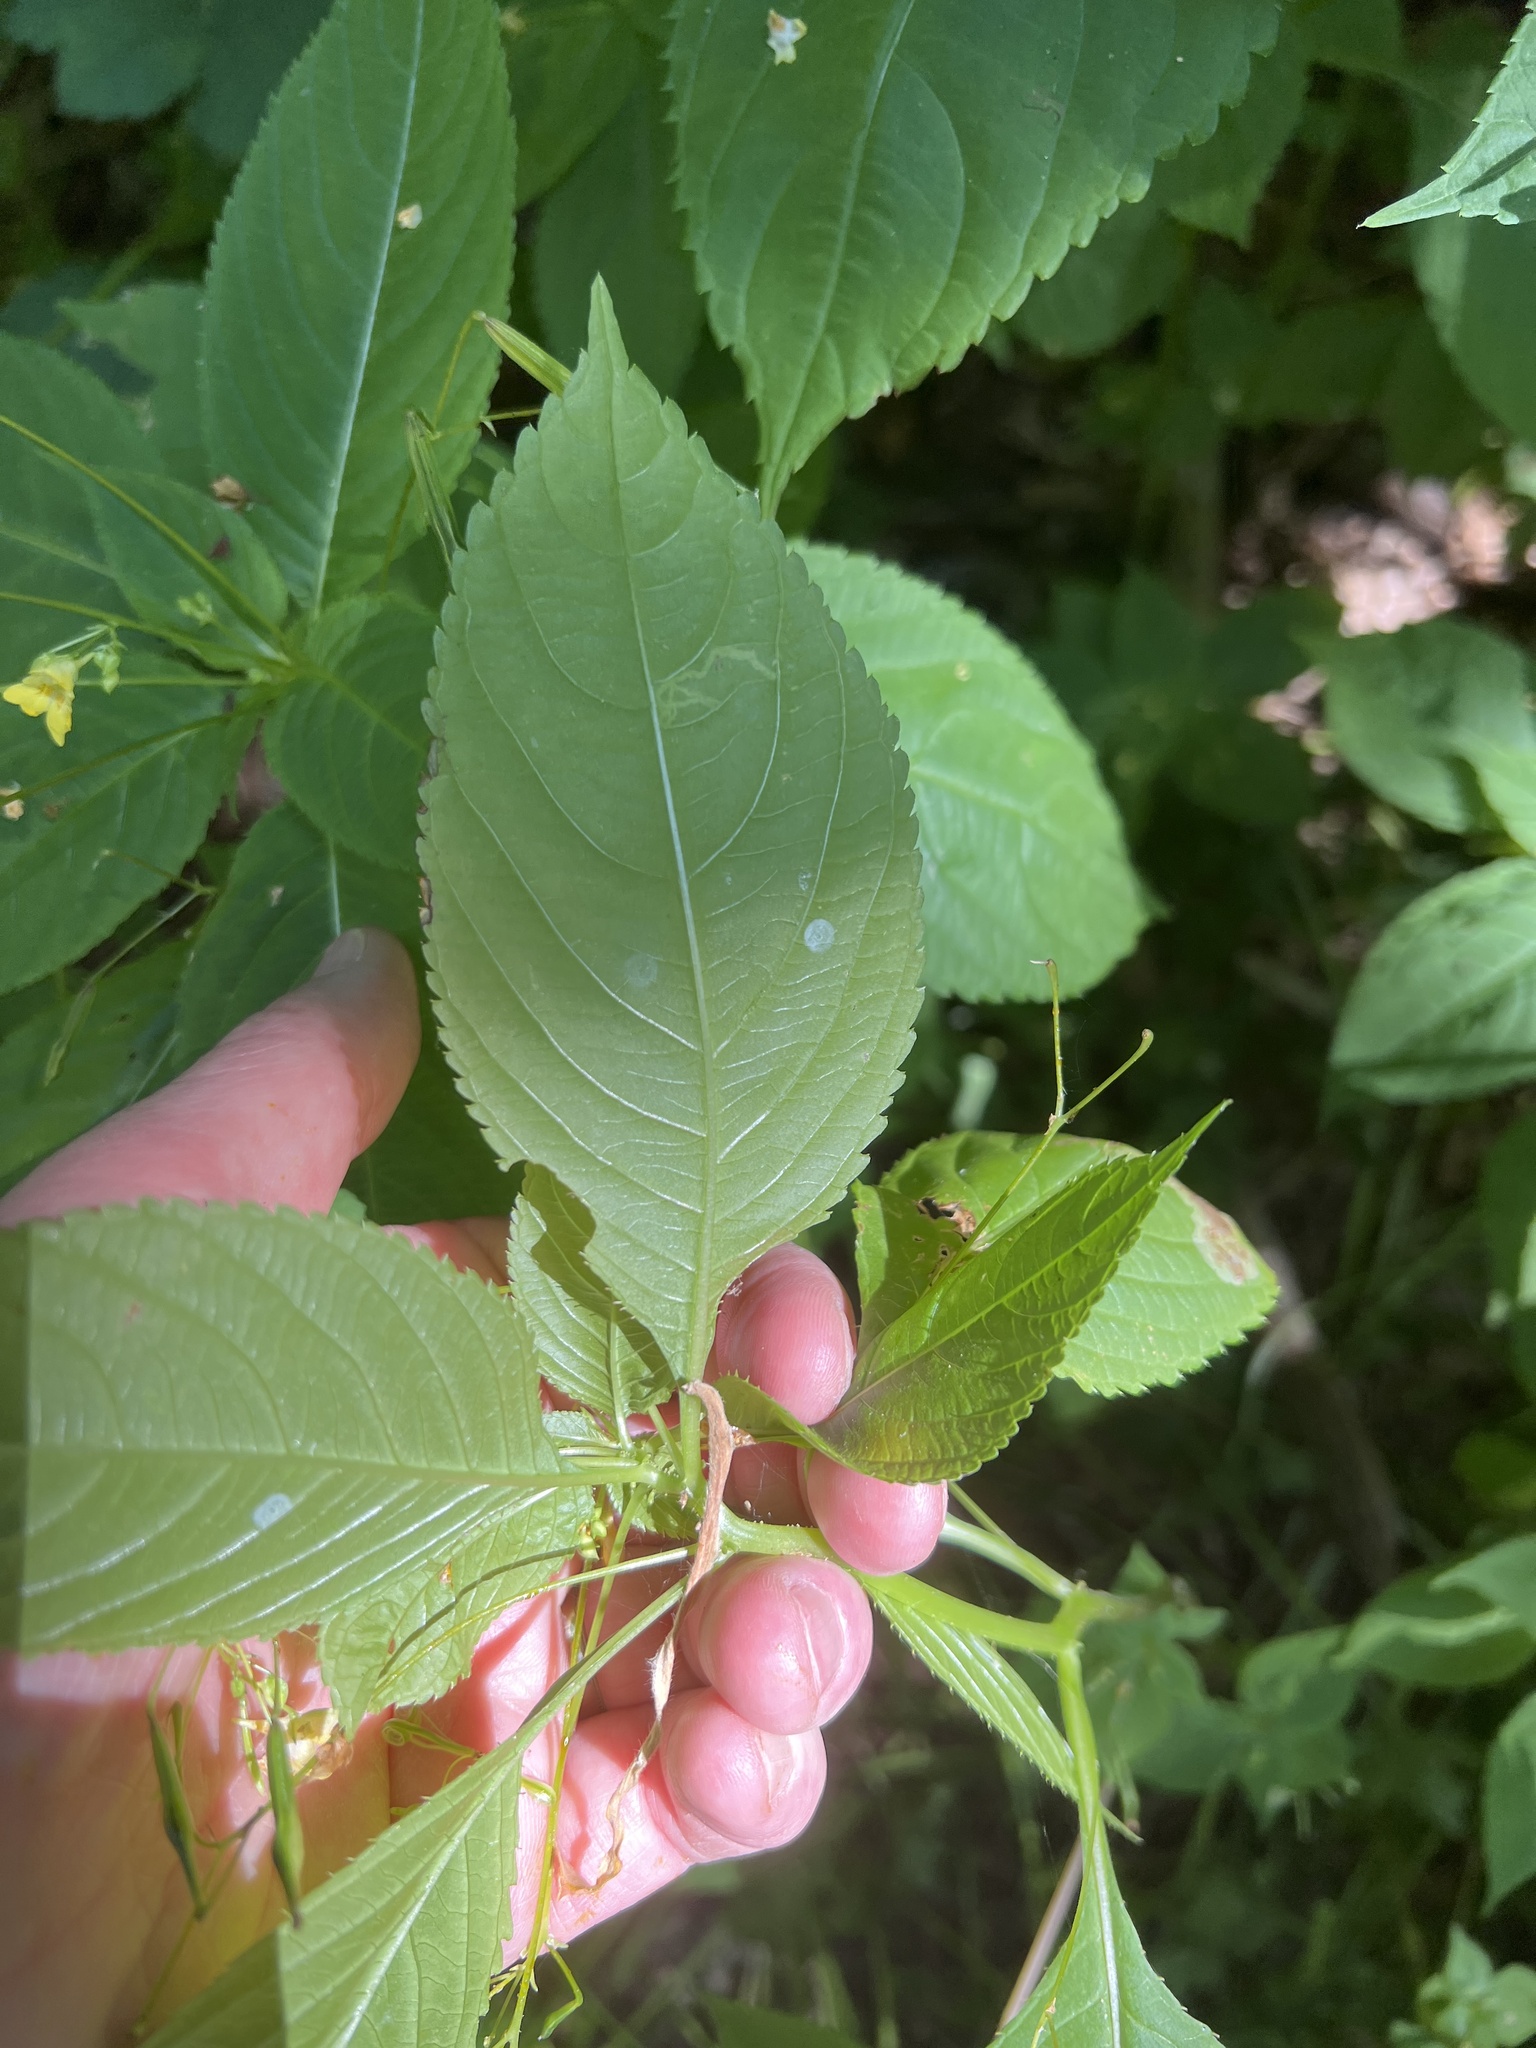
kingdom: Plantae
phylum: Tracheophyta
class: Magnoliopsida
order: Ericales
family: Balsaminaceae
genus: Impatiens
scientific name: Impatiens parviflora
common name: Small balsam
